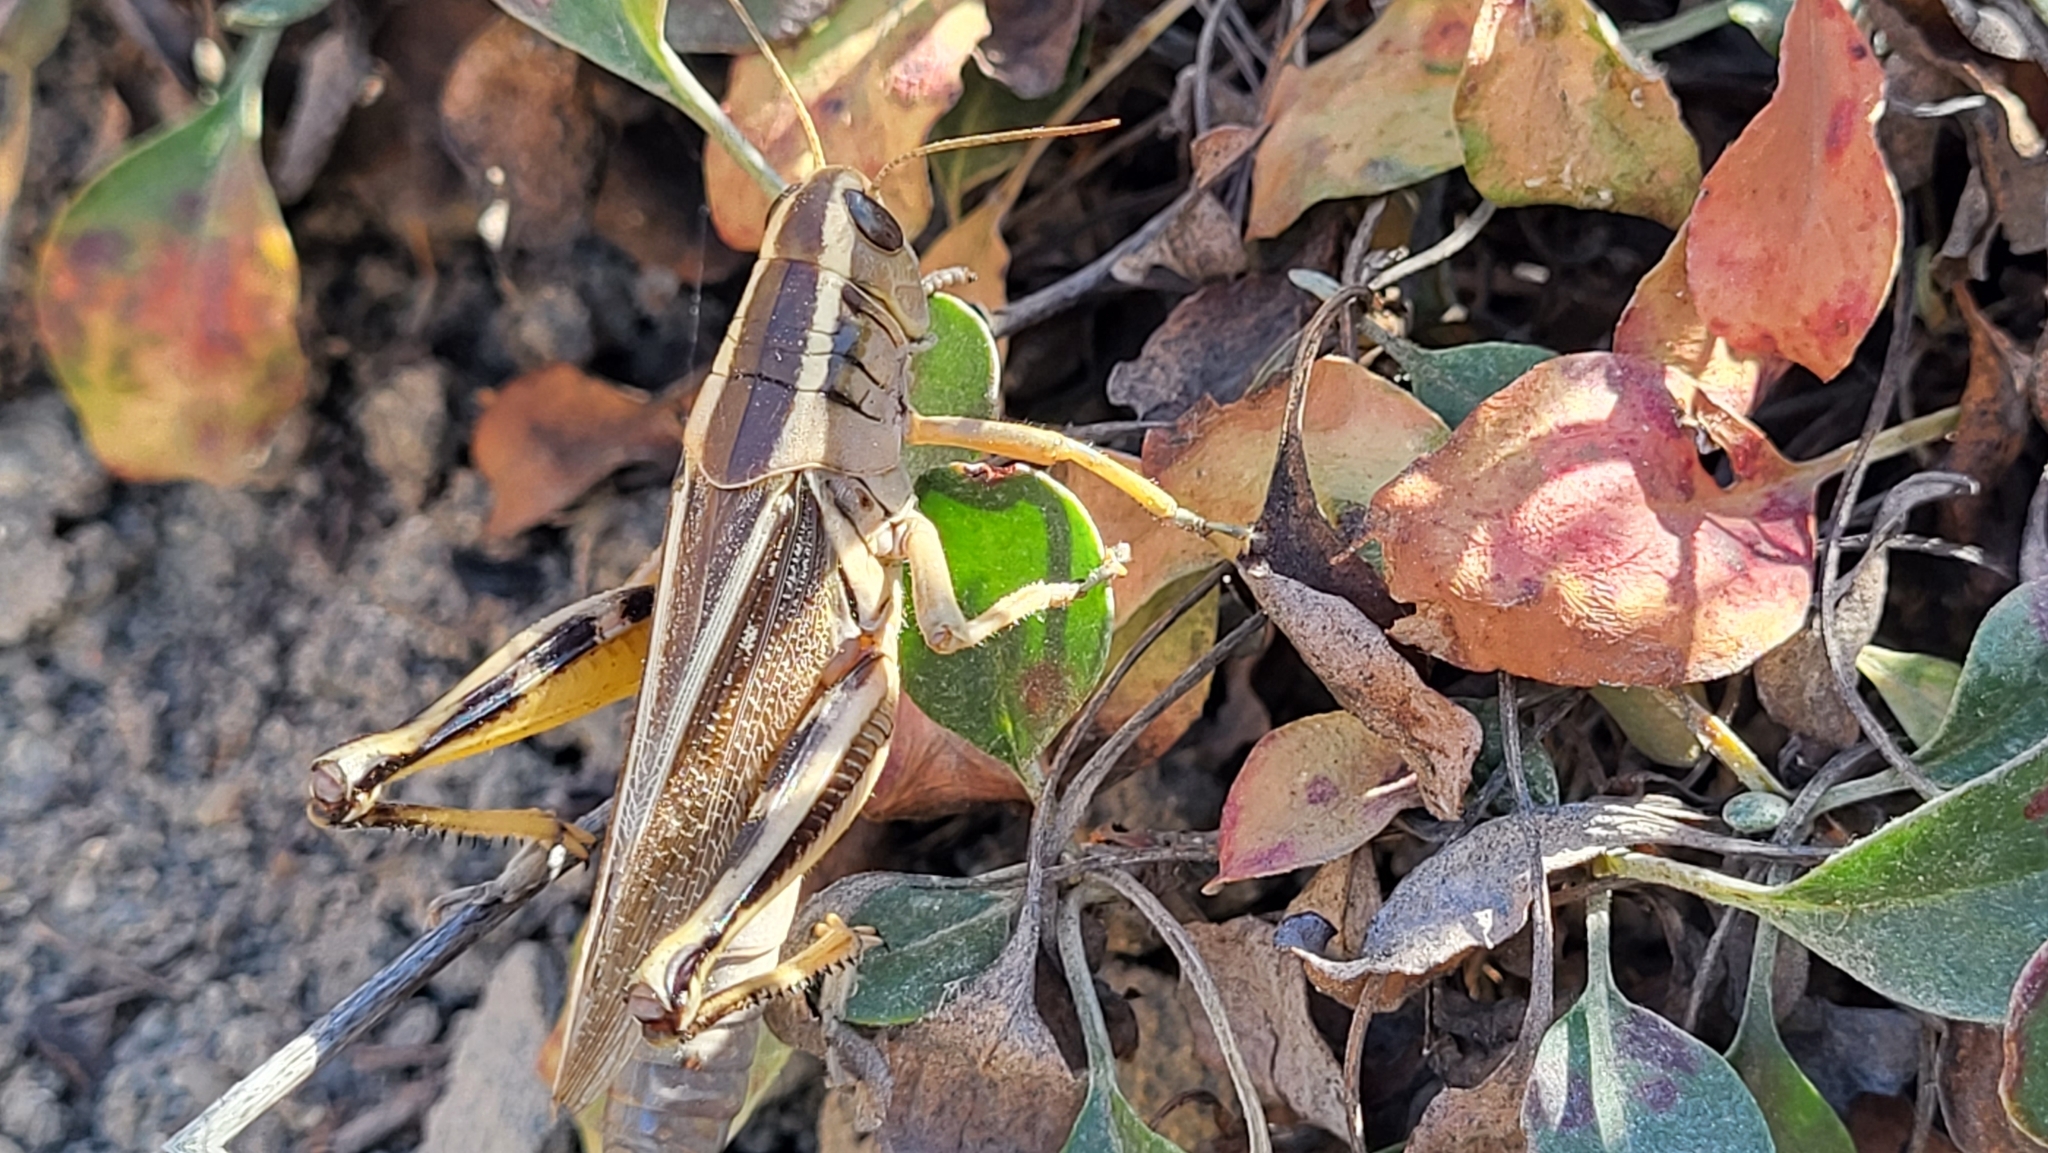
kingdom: Animalia
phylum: Arthropoda
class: Insecta
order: Orthoptera
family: Acrididae
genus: Melanoplus
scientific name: Melanoplus bivittatus
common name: Two-striped grasshopper
